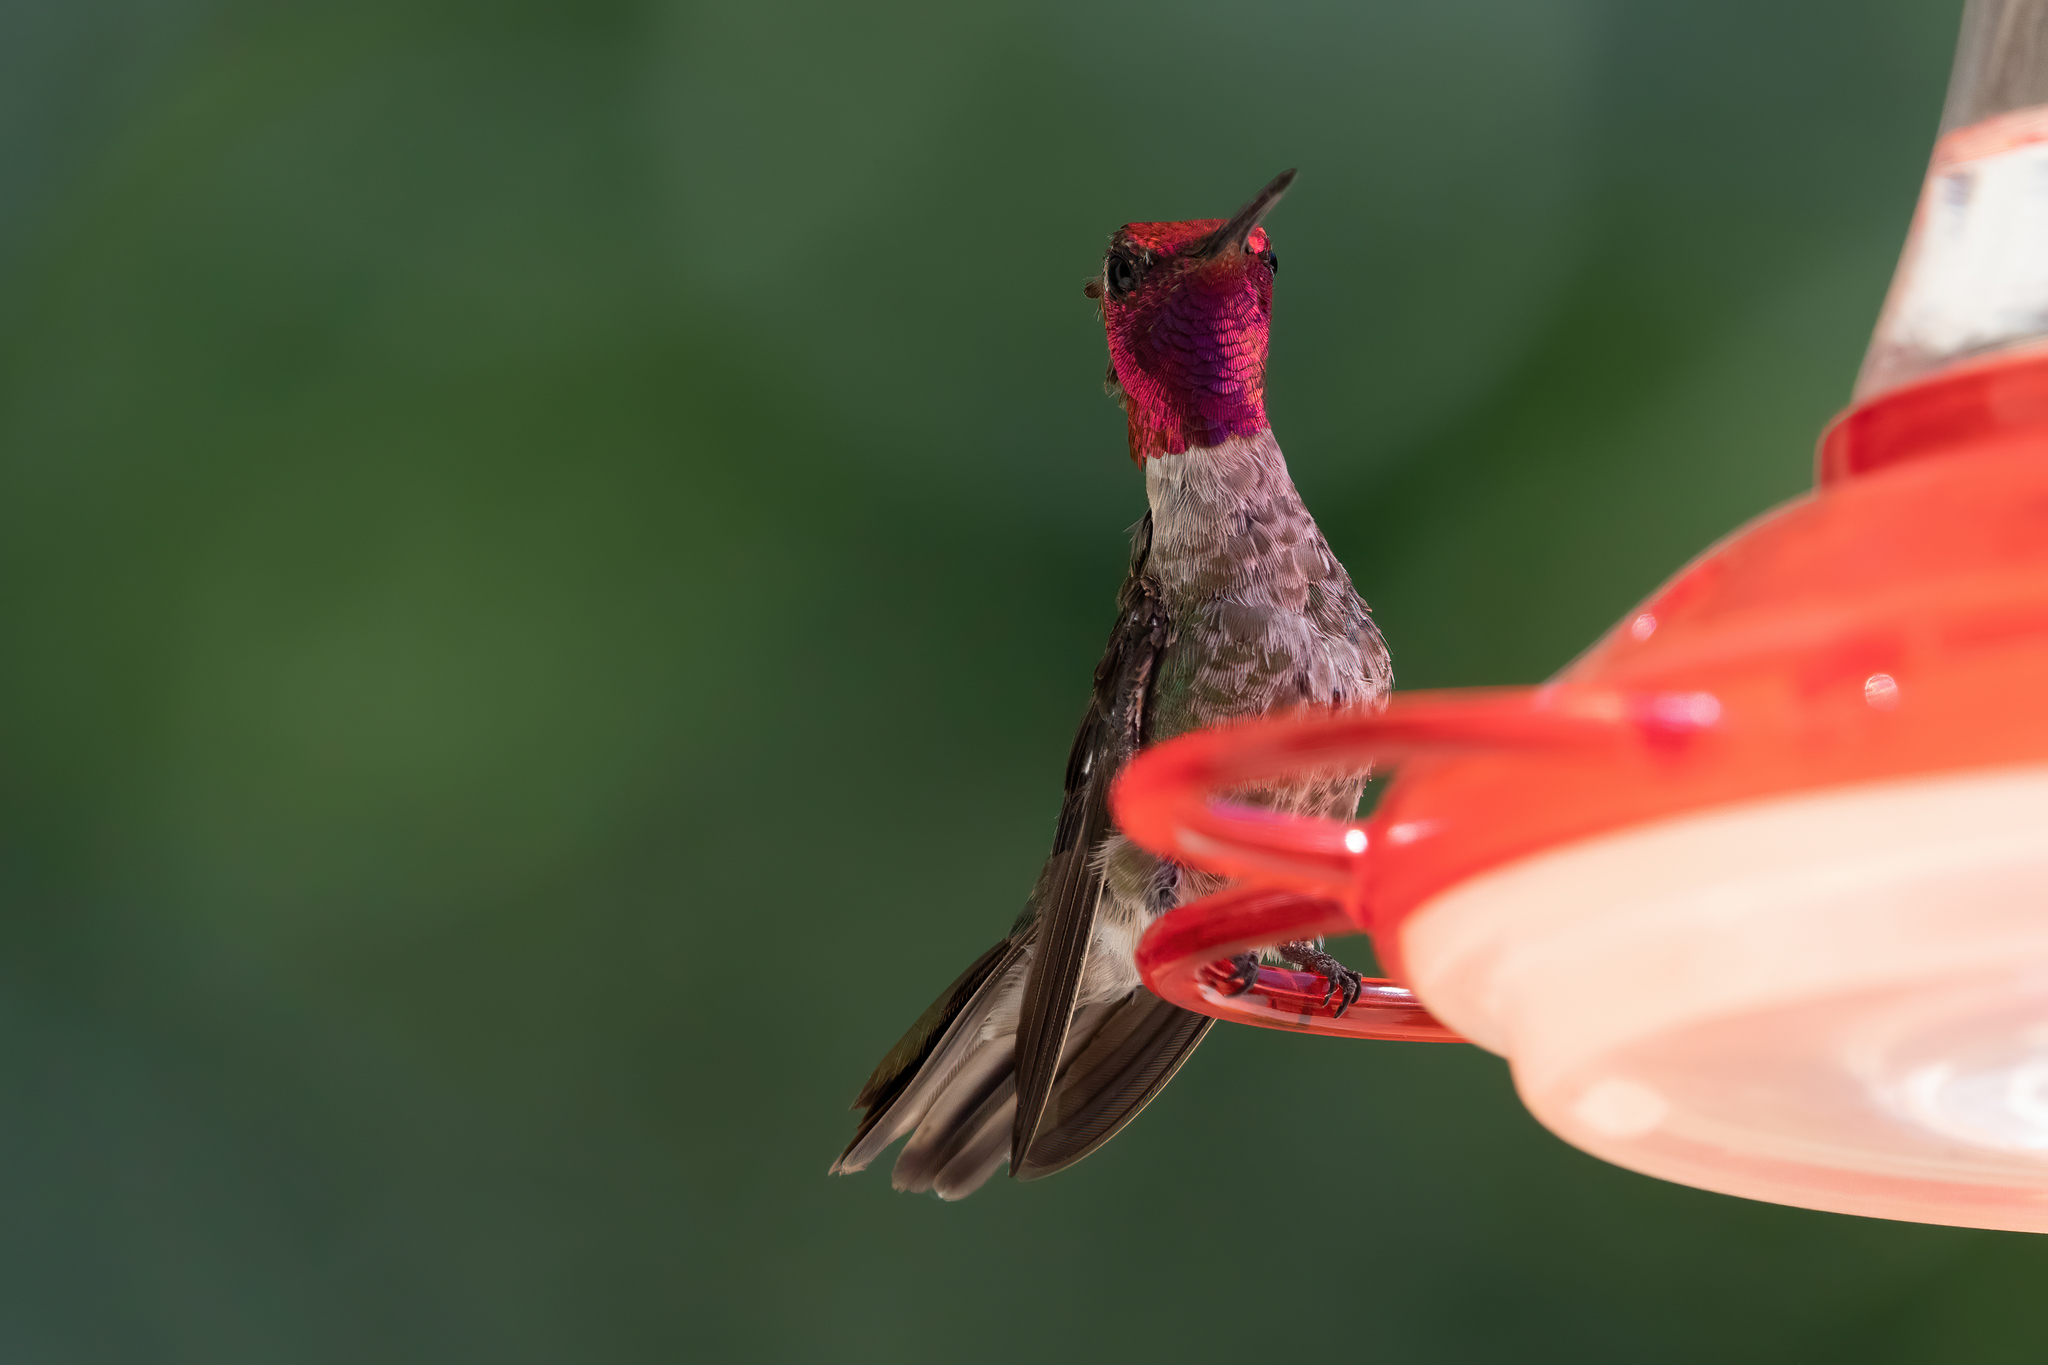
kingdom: Animalia
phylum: Chordata
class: Aves
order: Apodiformes
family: Trochilidae
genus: Calypte
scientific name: Calypte anna
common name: Anna's hummingbird
